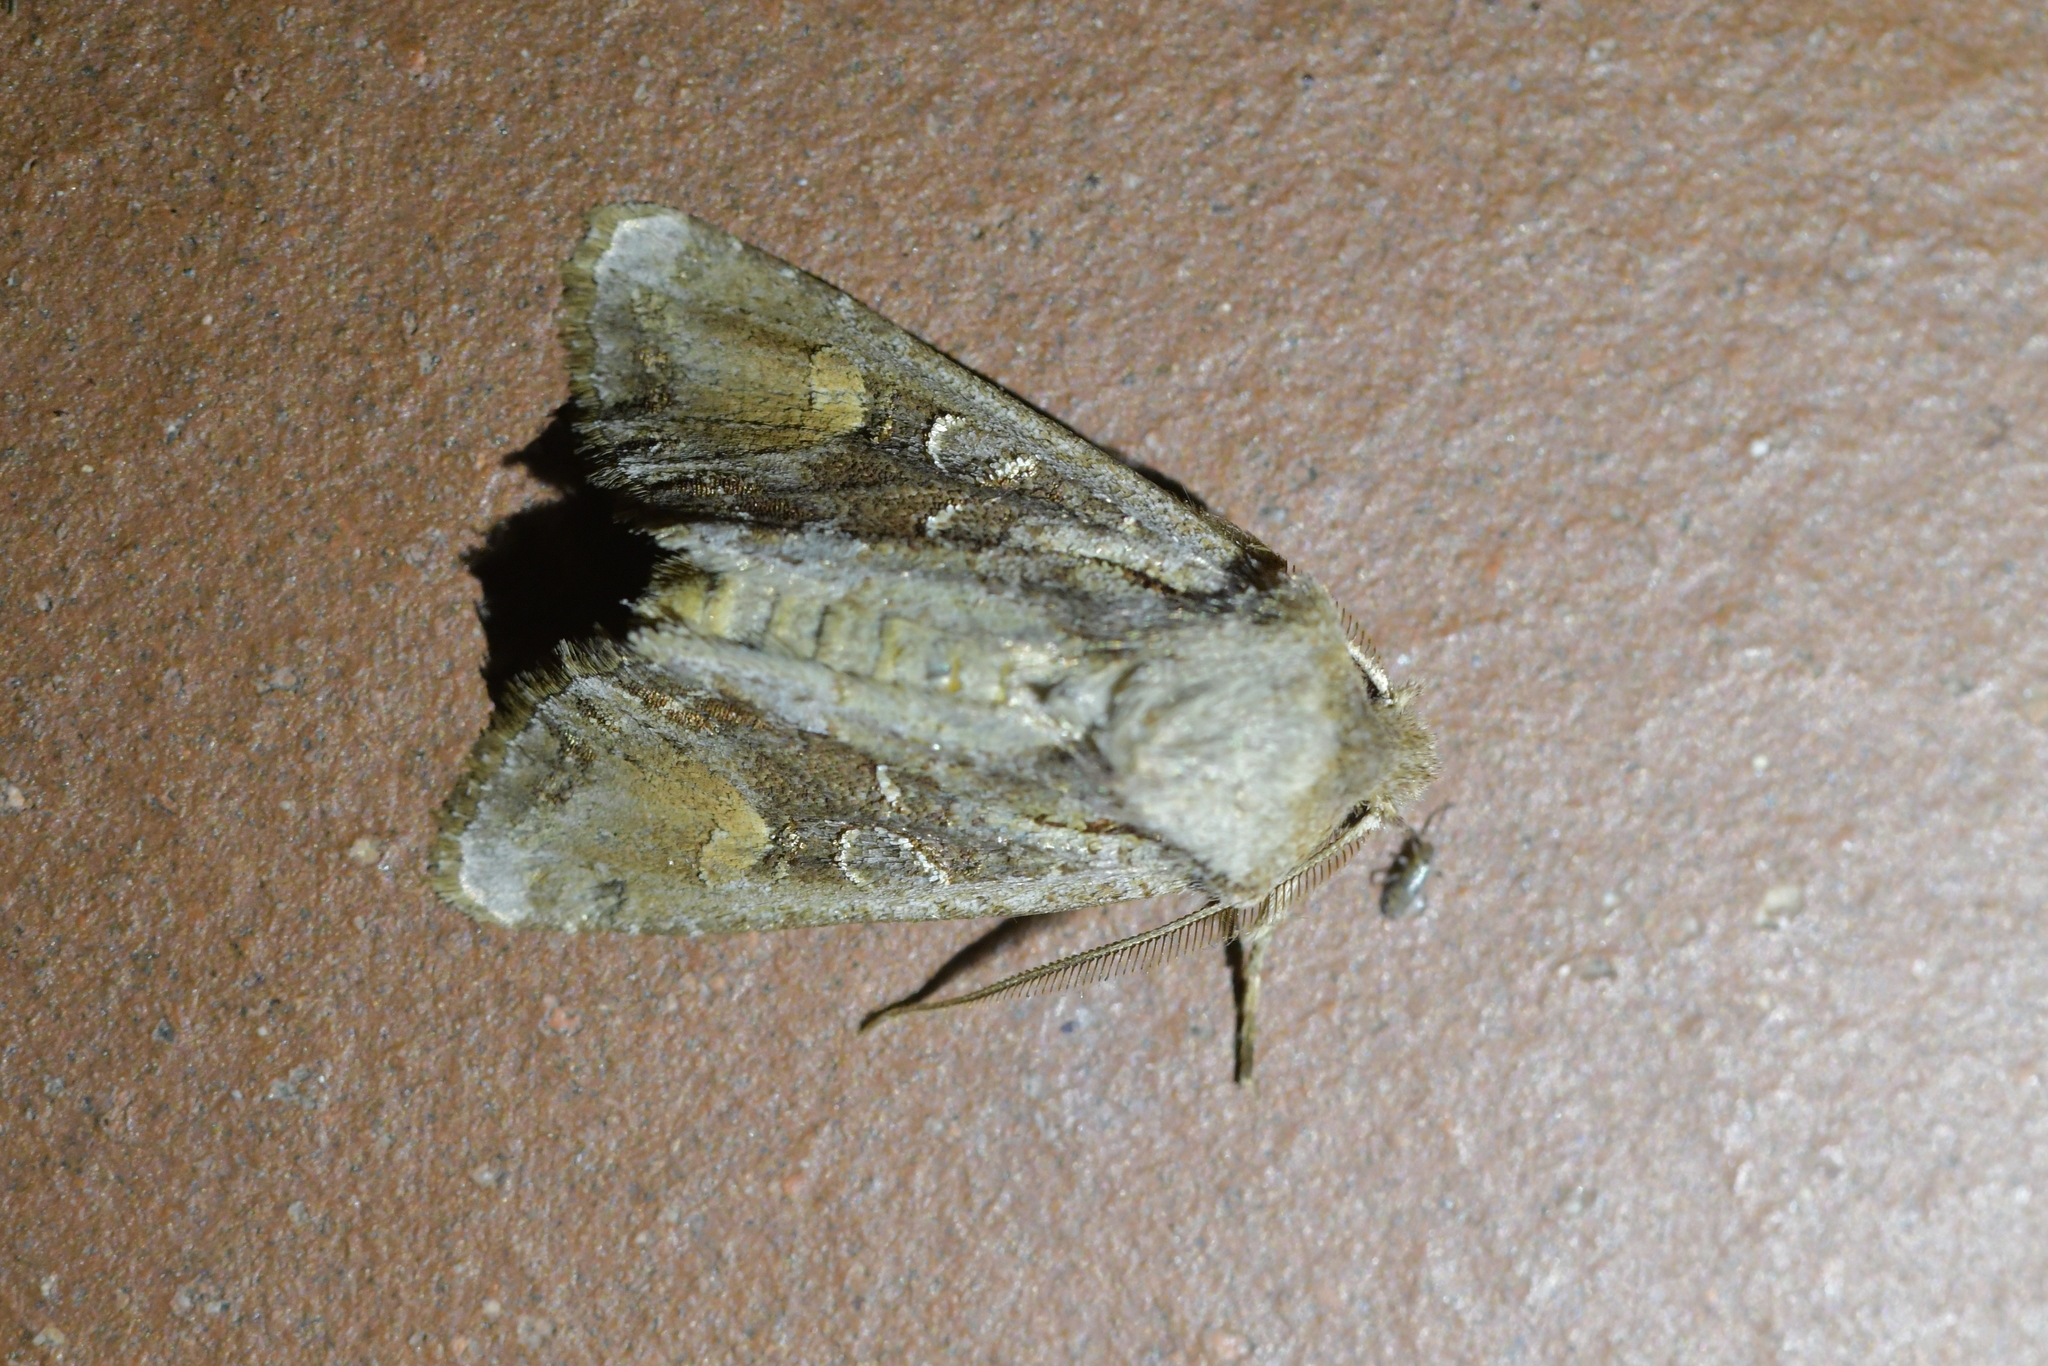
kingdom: Animalia
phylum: Arthropoda
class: Insecta
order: Lepidoptera
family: Noctuidae
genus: Ichneutica
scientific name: Ichneutica
